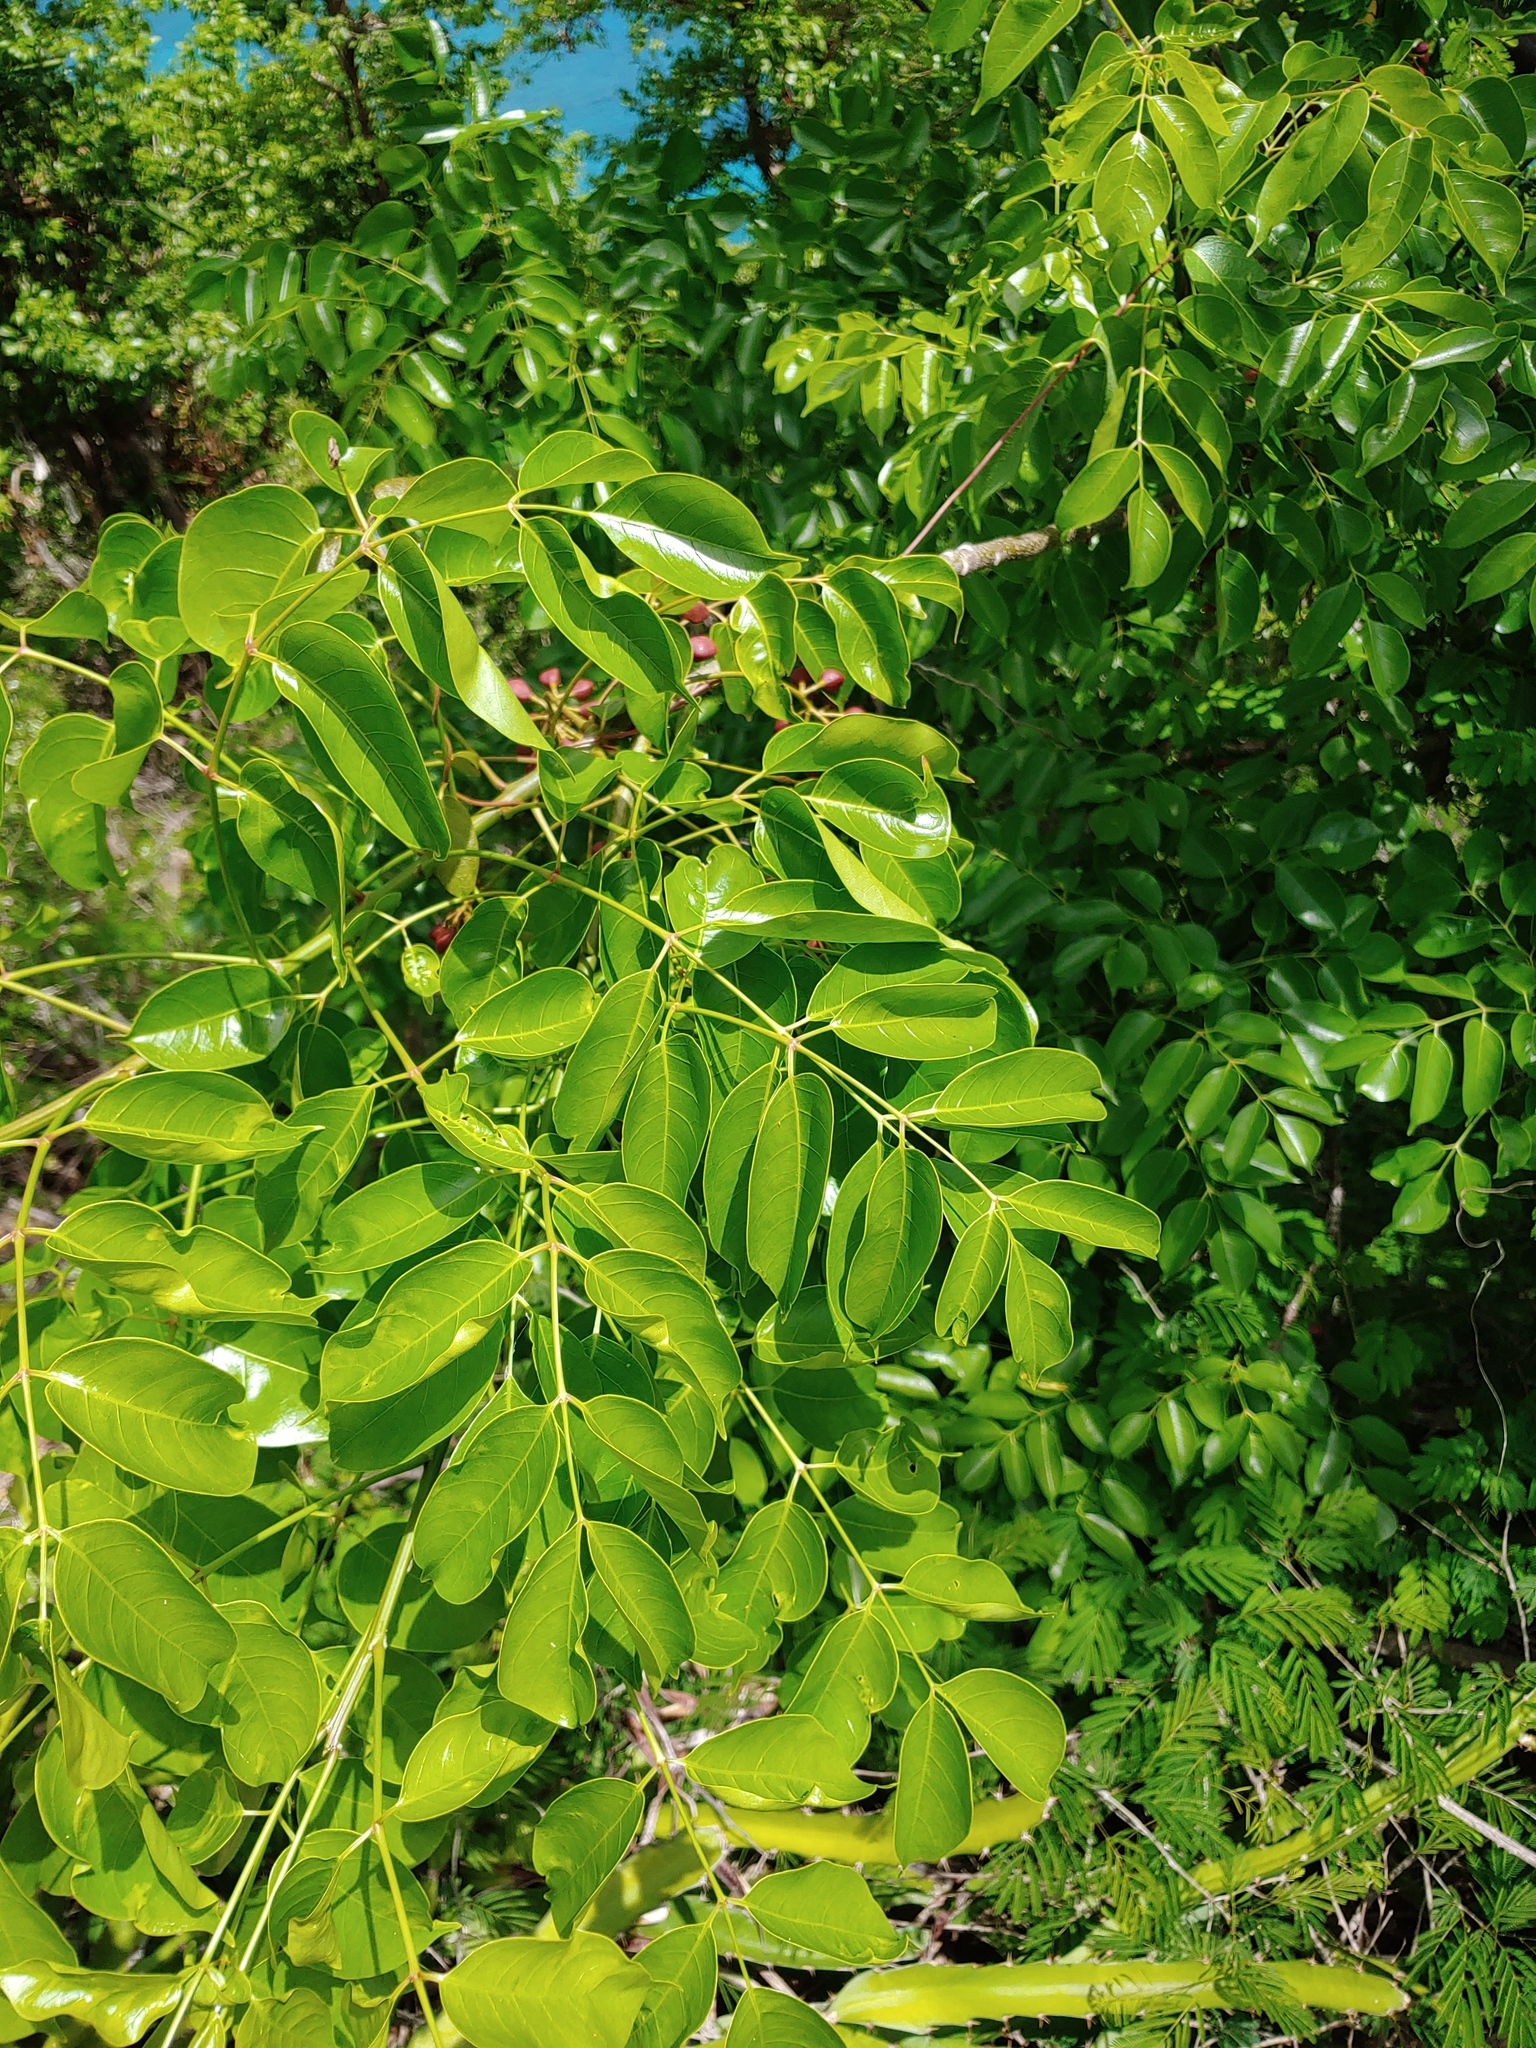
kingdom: Plantae
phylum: Tracheophyta
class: Magnoliopsida
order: Sapindales
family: Burseraceae
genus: Bursera
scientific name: Bursera simaruba
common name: Turpentine tree
